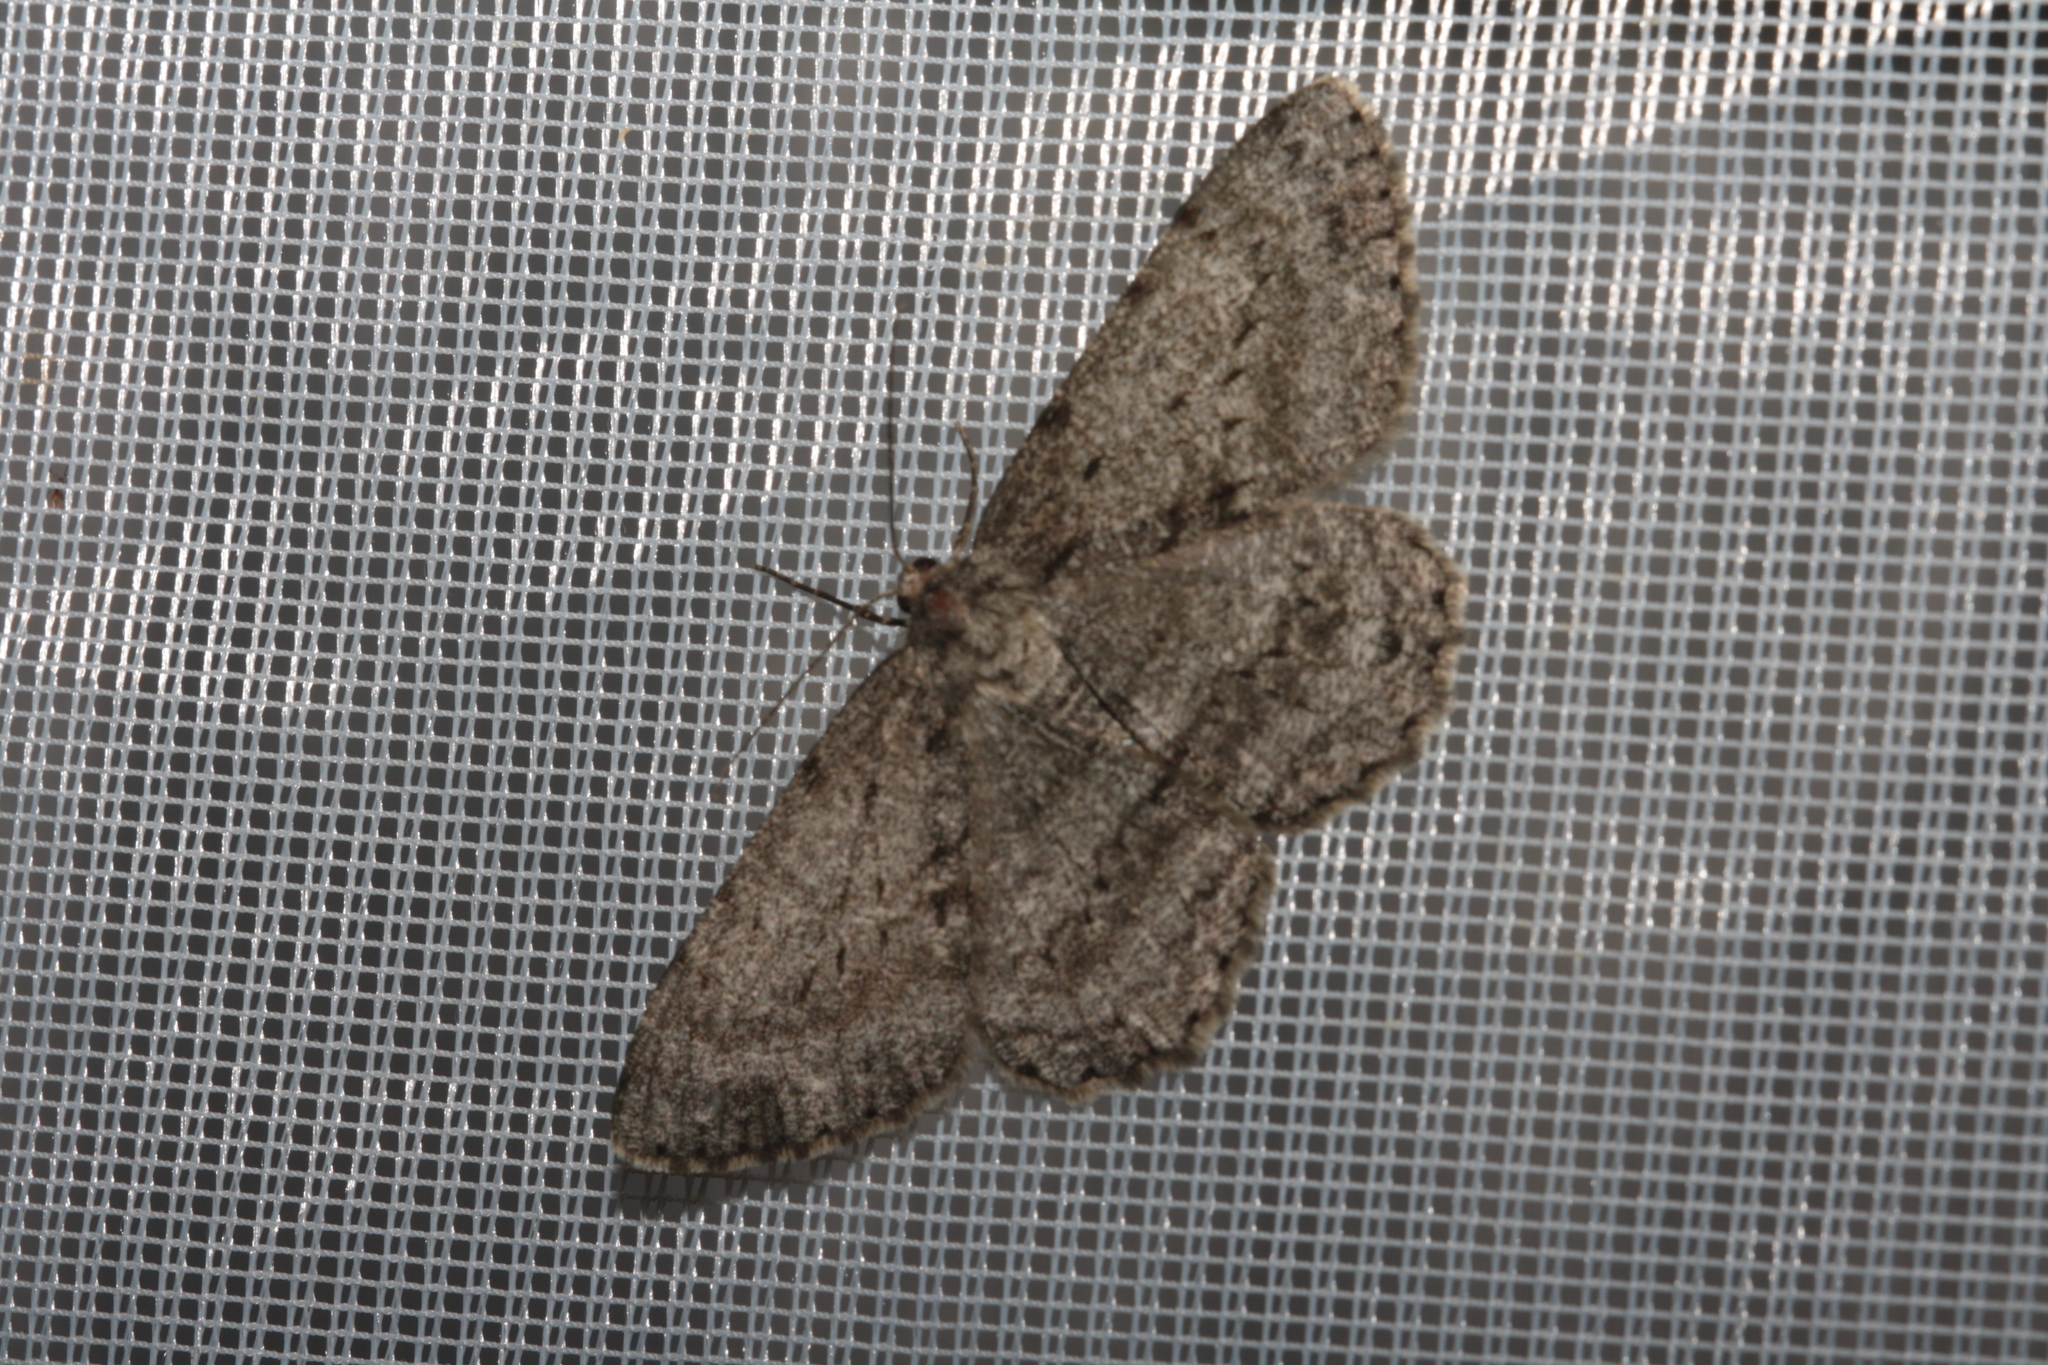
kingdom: Animalia
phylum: Arthropoda
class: Insecta
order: Lepidoptera
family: Geometridae
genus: Hypomecis
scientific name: Hypomecis roboraria
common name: Great oak beauty
